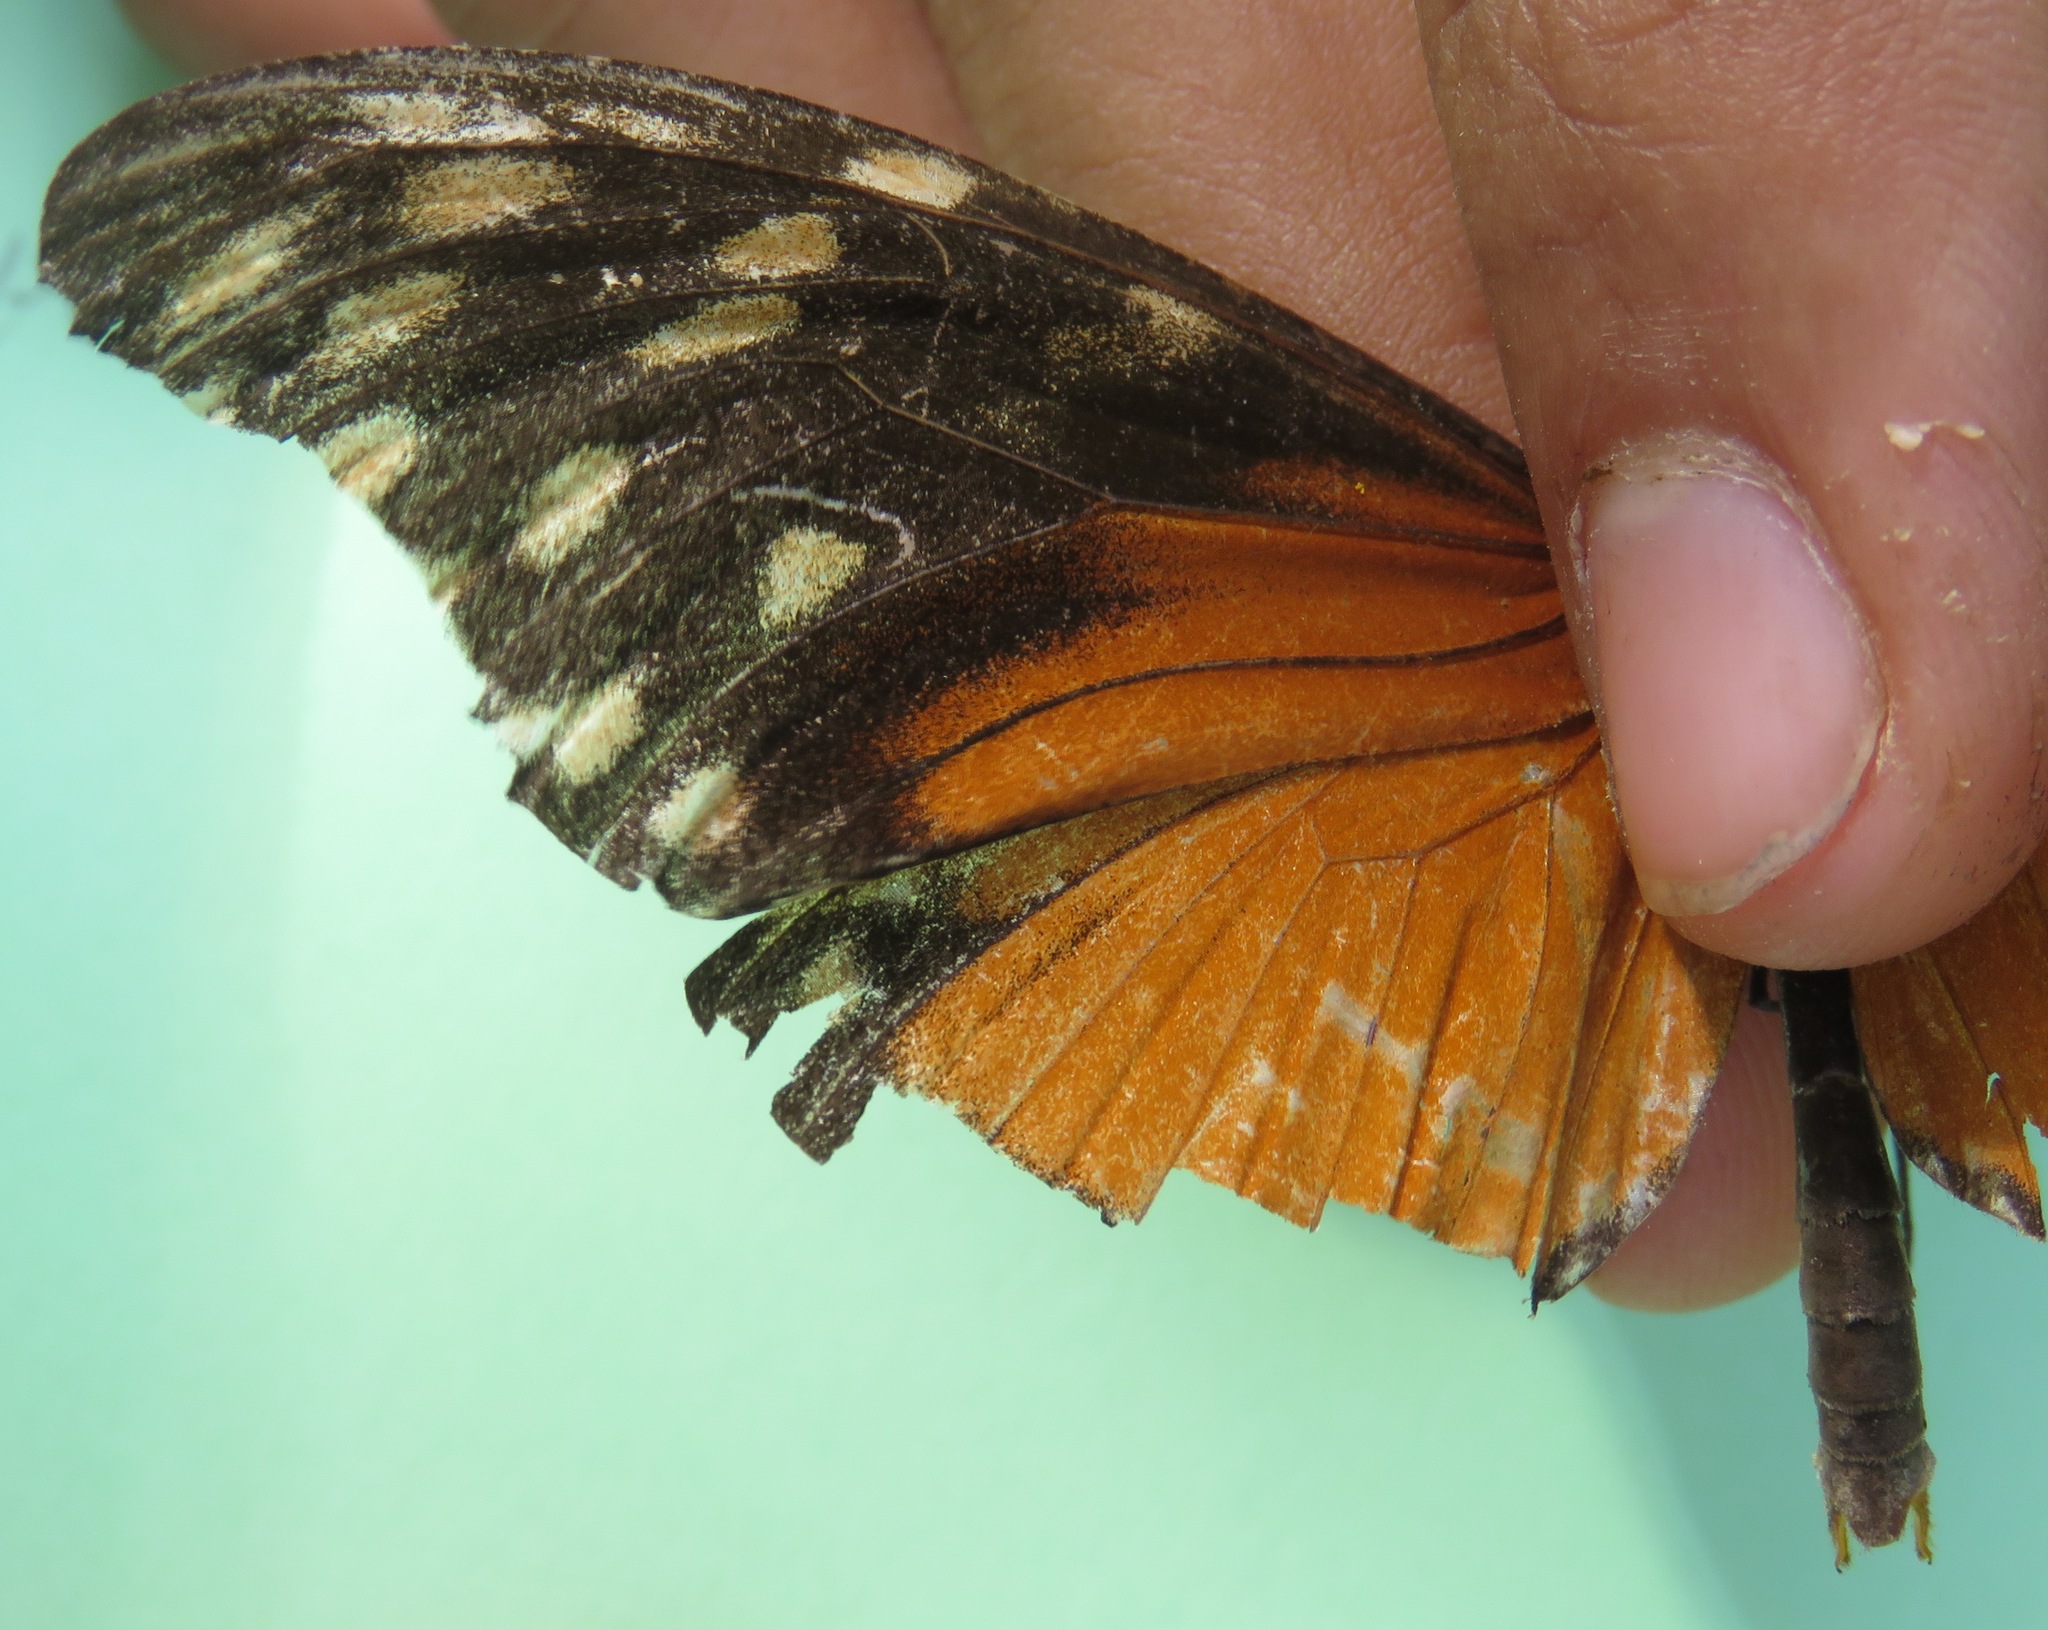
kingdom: Animalia
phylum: Arthropoda
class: Insecta
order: Lepidoptera
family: Nymphalidae
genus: Heliconius
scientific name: Heliconius hecale
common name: Tiger longwing
